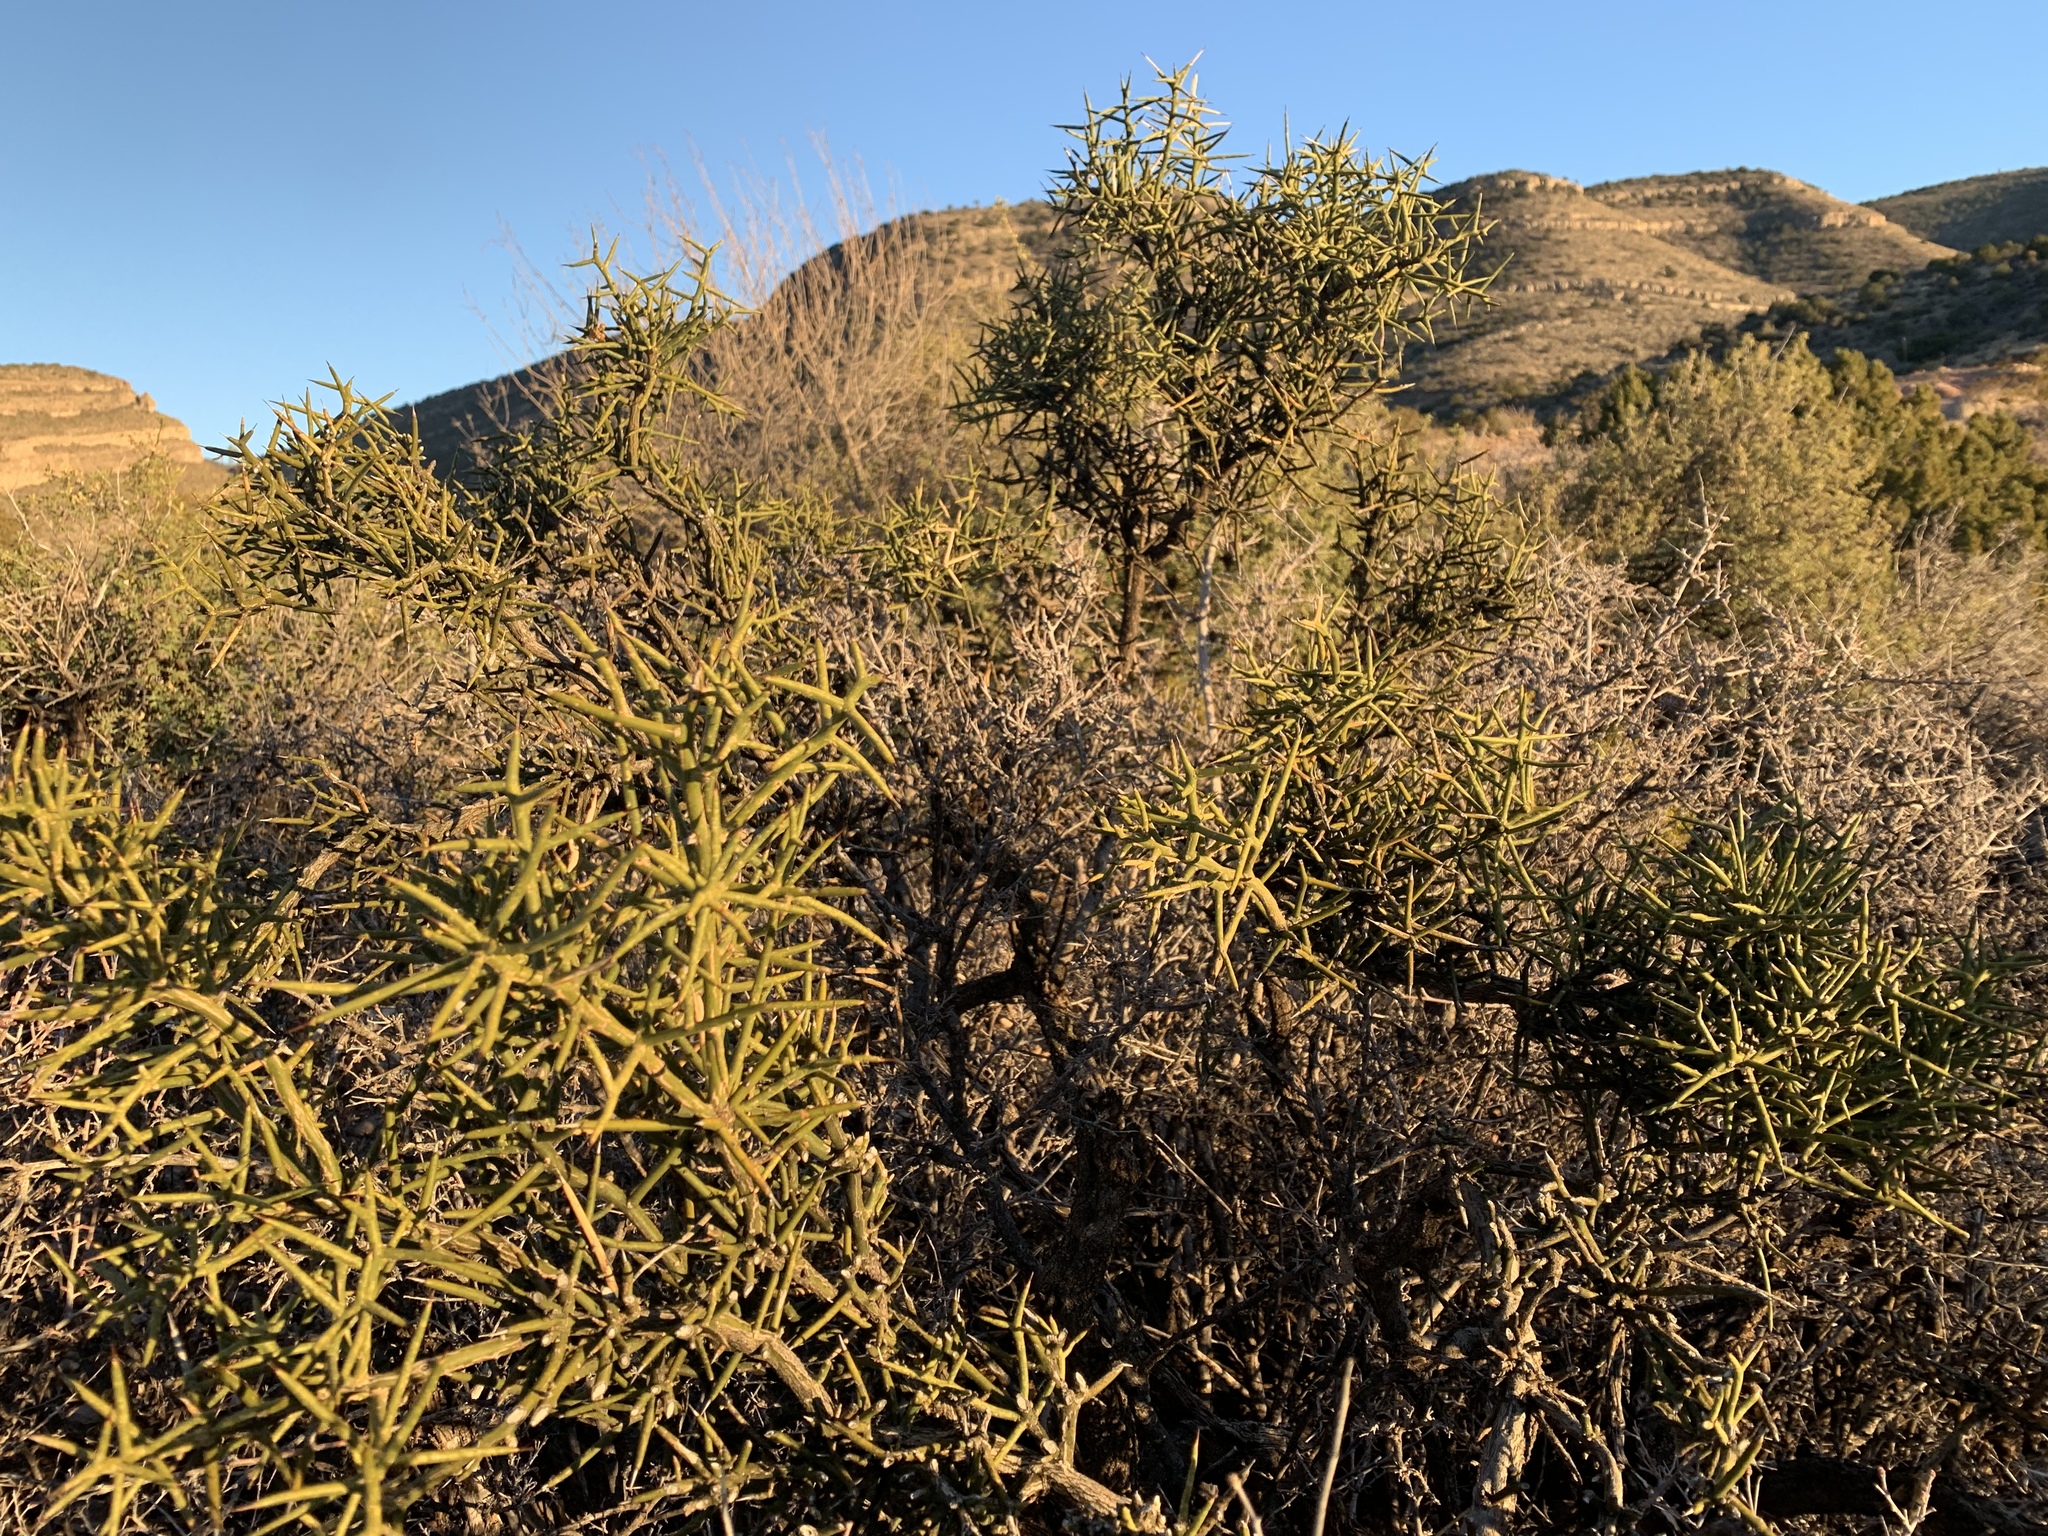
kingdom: Plantae
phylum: Tracheophyta
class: Magnoliopsida
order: Brassicales
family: Koeberliniaceae
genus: Koeberlinia
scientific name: Koeberlinia spinosa
